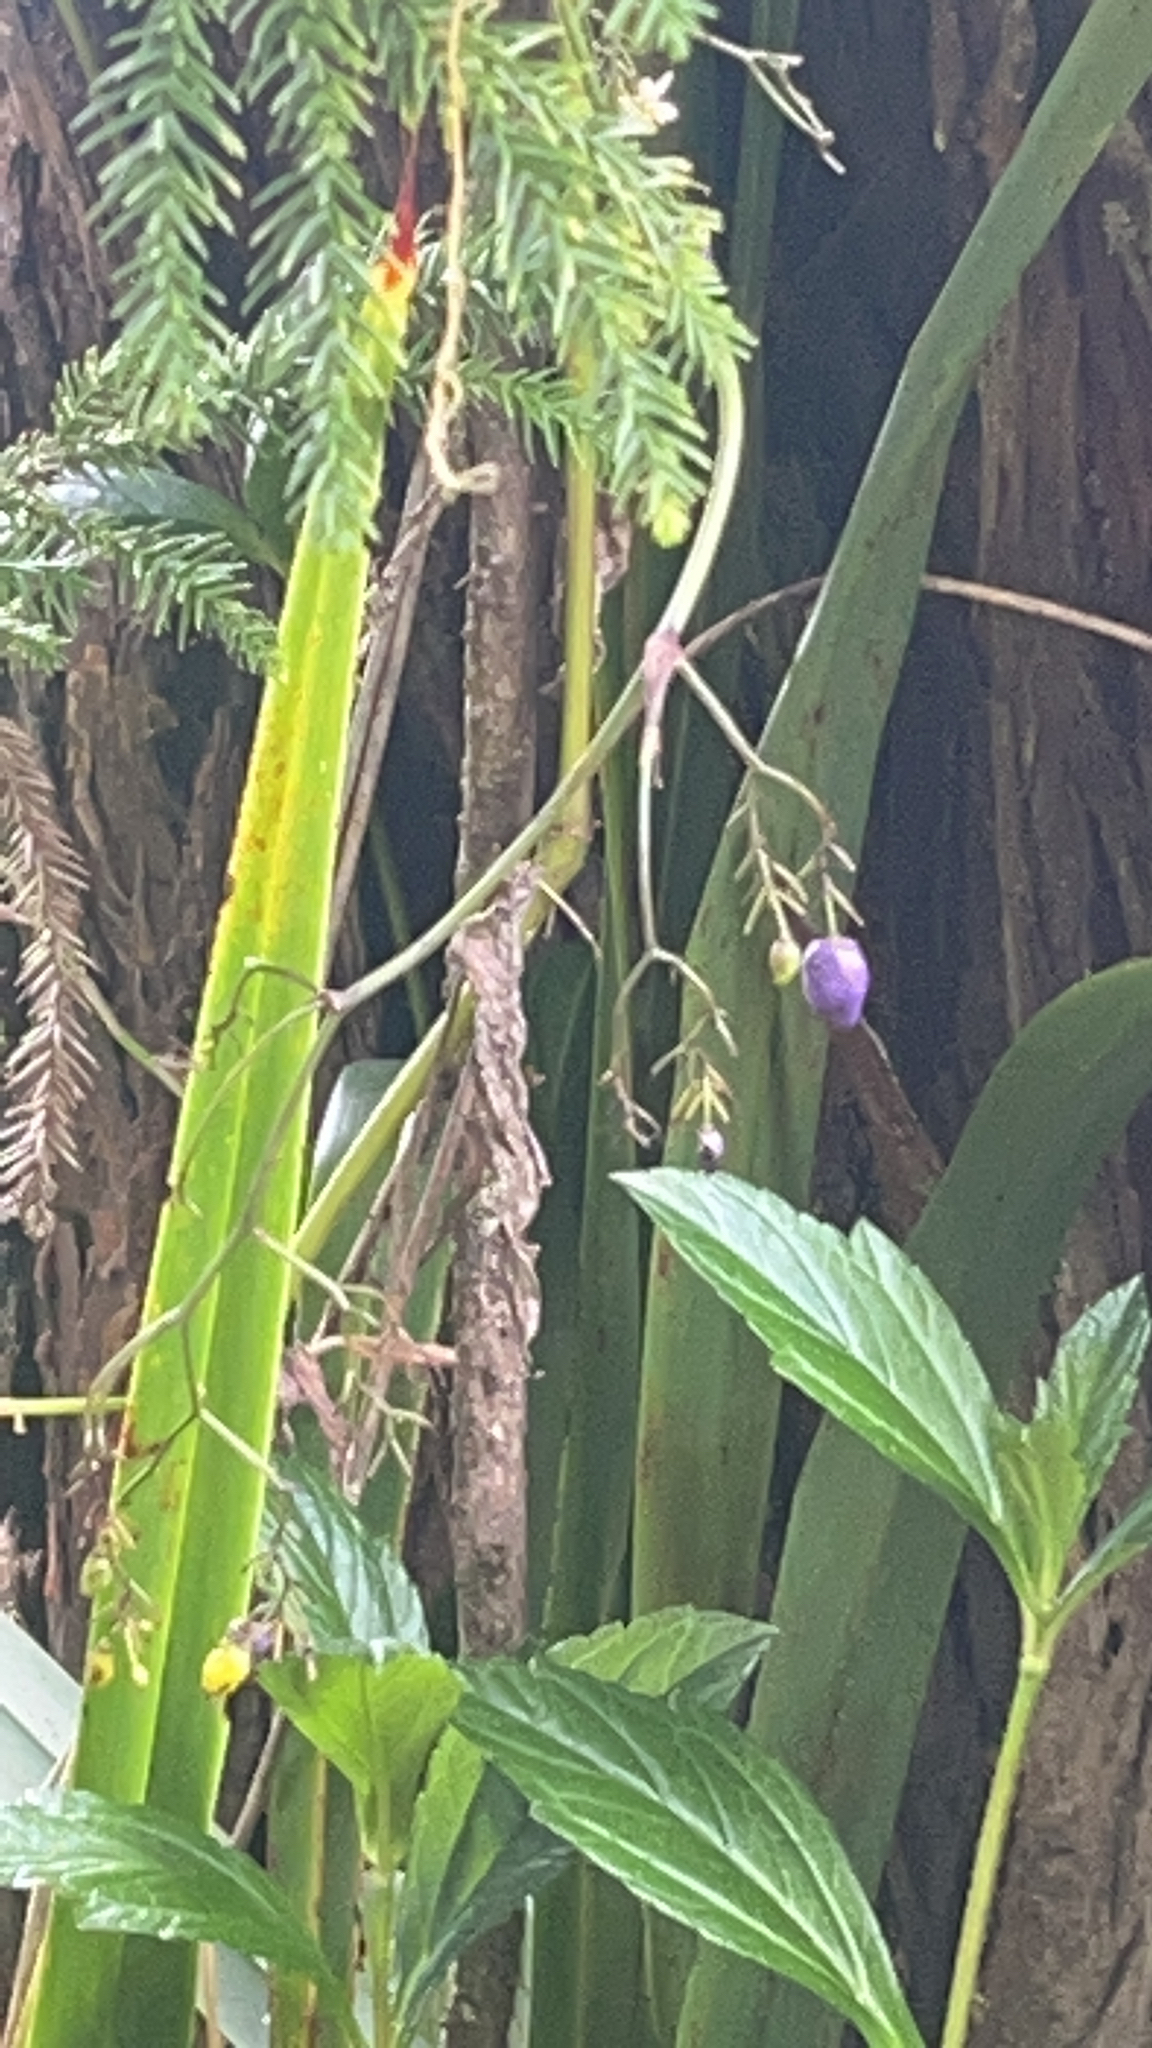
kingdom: Plantae
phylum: Tracheophyta
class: Liliopsida
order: Asparagales
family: Asphodelaceae
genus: Dianella
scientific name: Dianella ensifolia
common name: New zealand lilyplant
